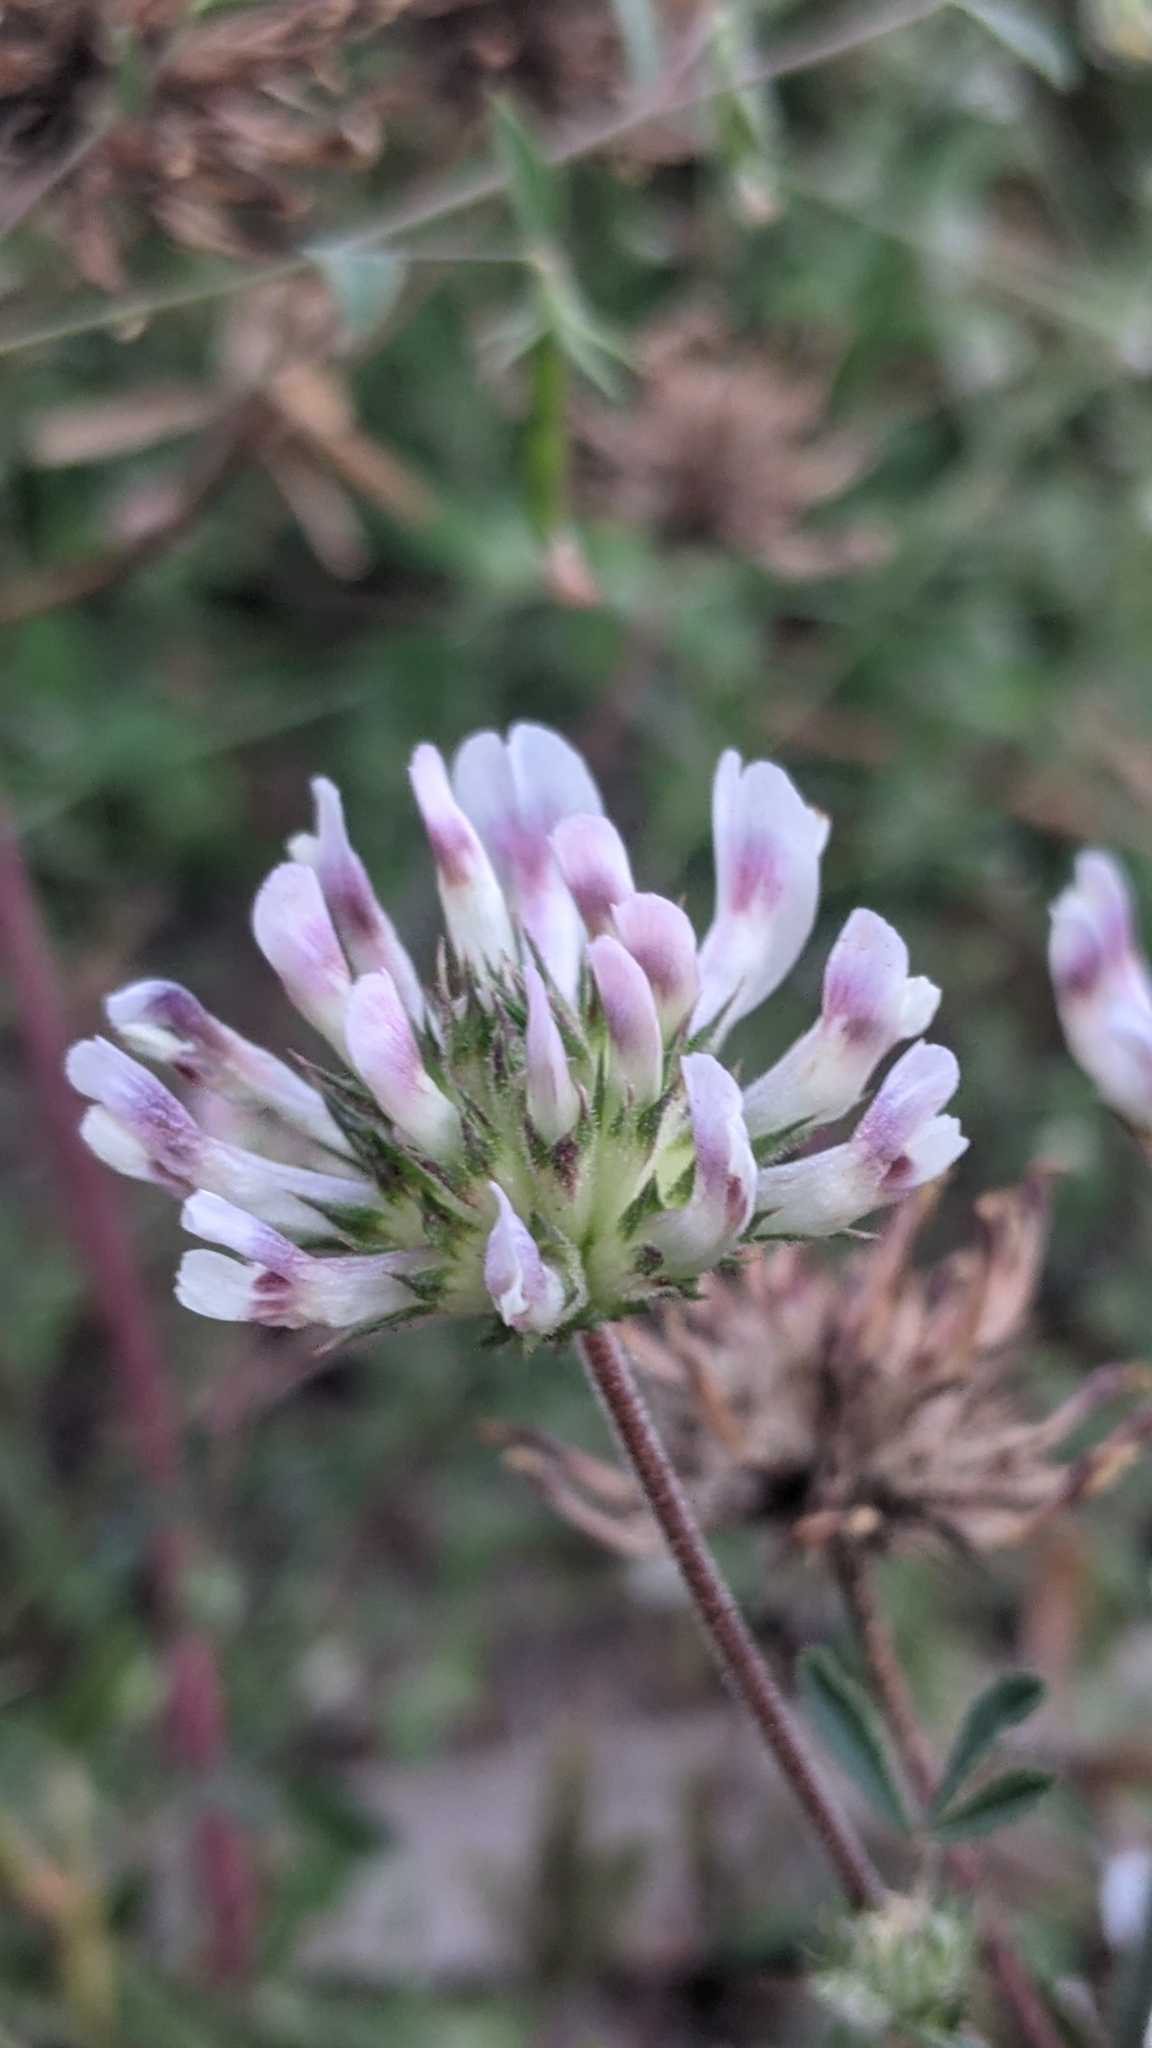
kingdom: Plantae
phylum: Tracheophyta
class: Magnoliopsida
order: Fabales
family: Fabaceae
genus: Trifolium
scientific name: Trifolium obtusiflorum
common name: Clammy clover
